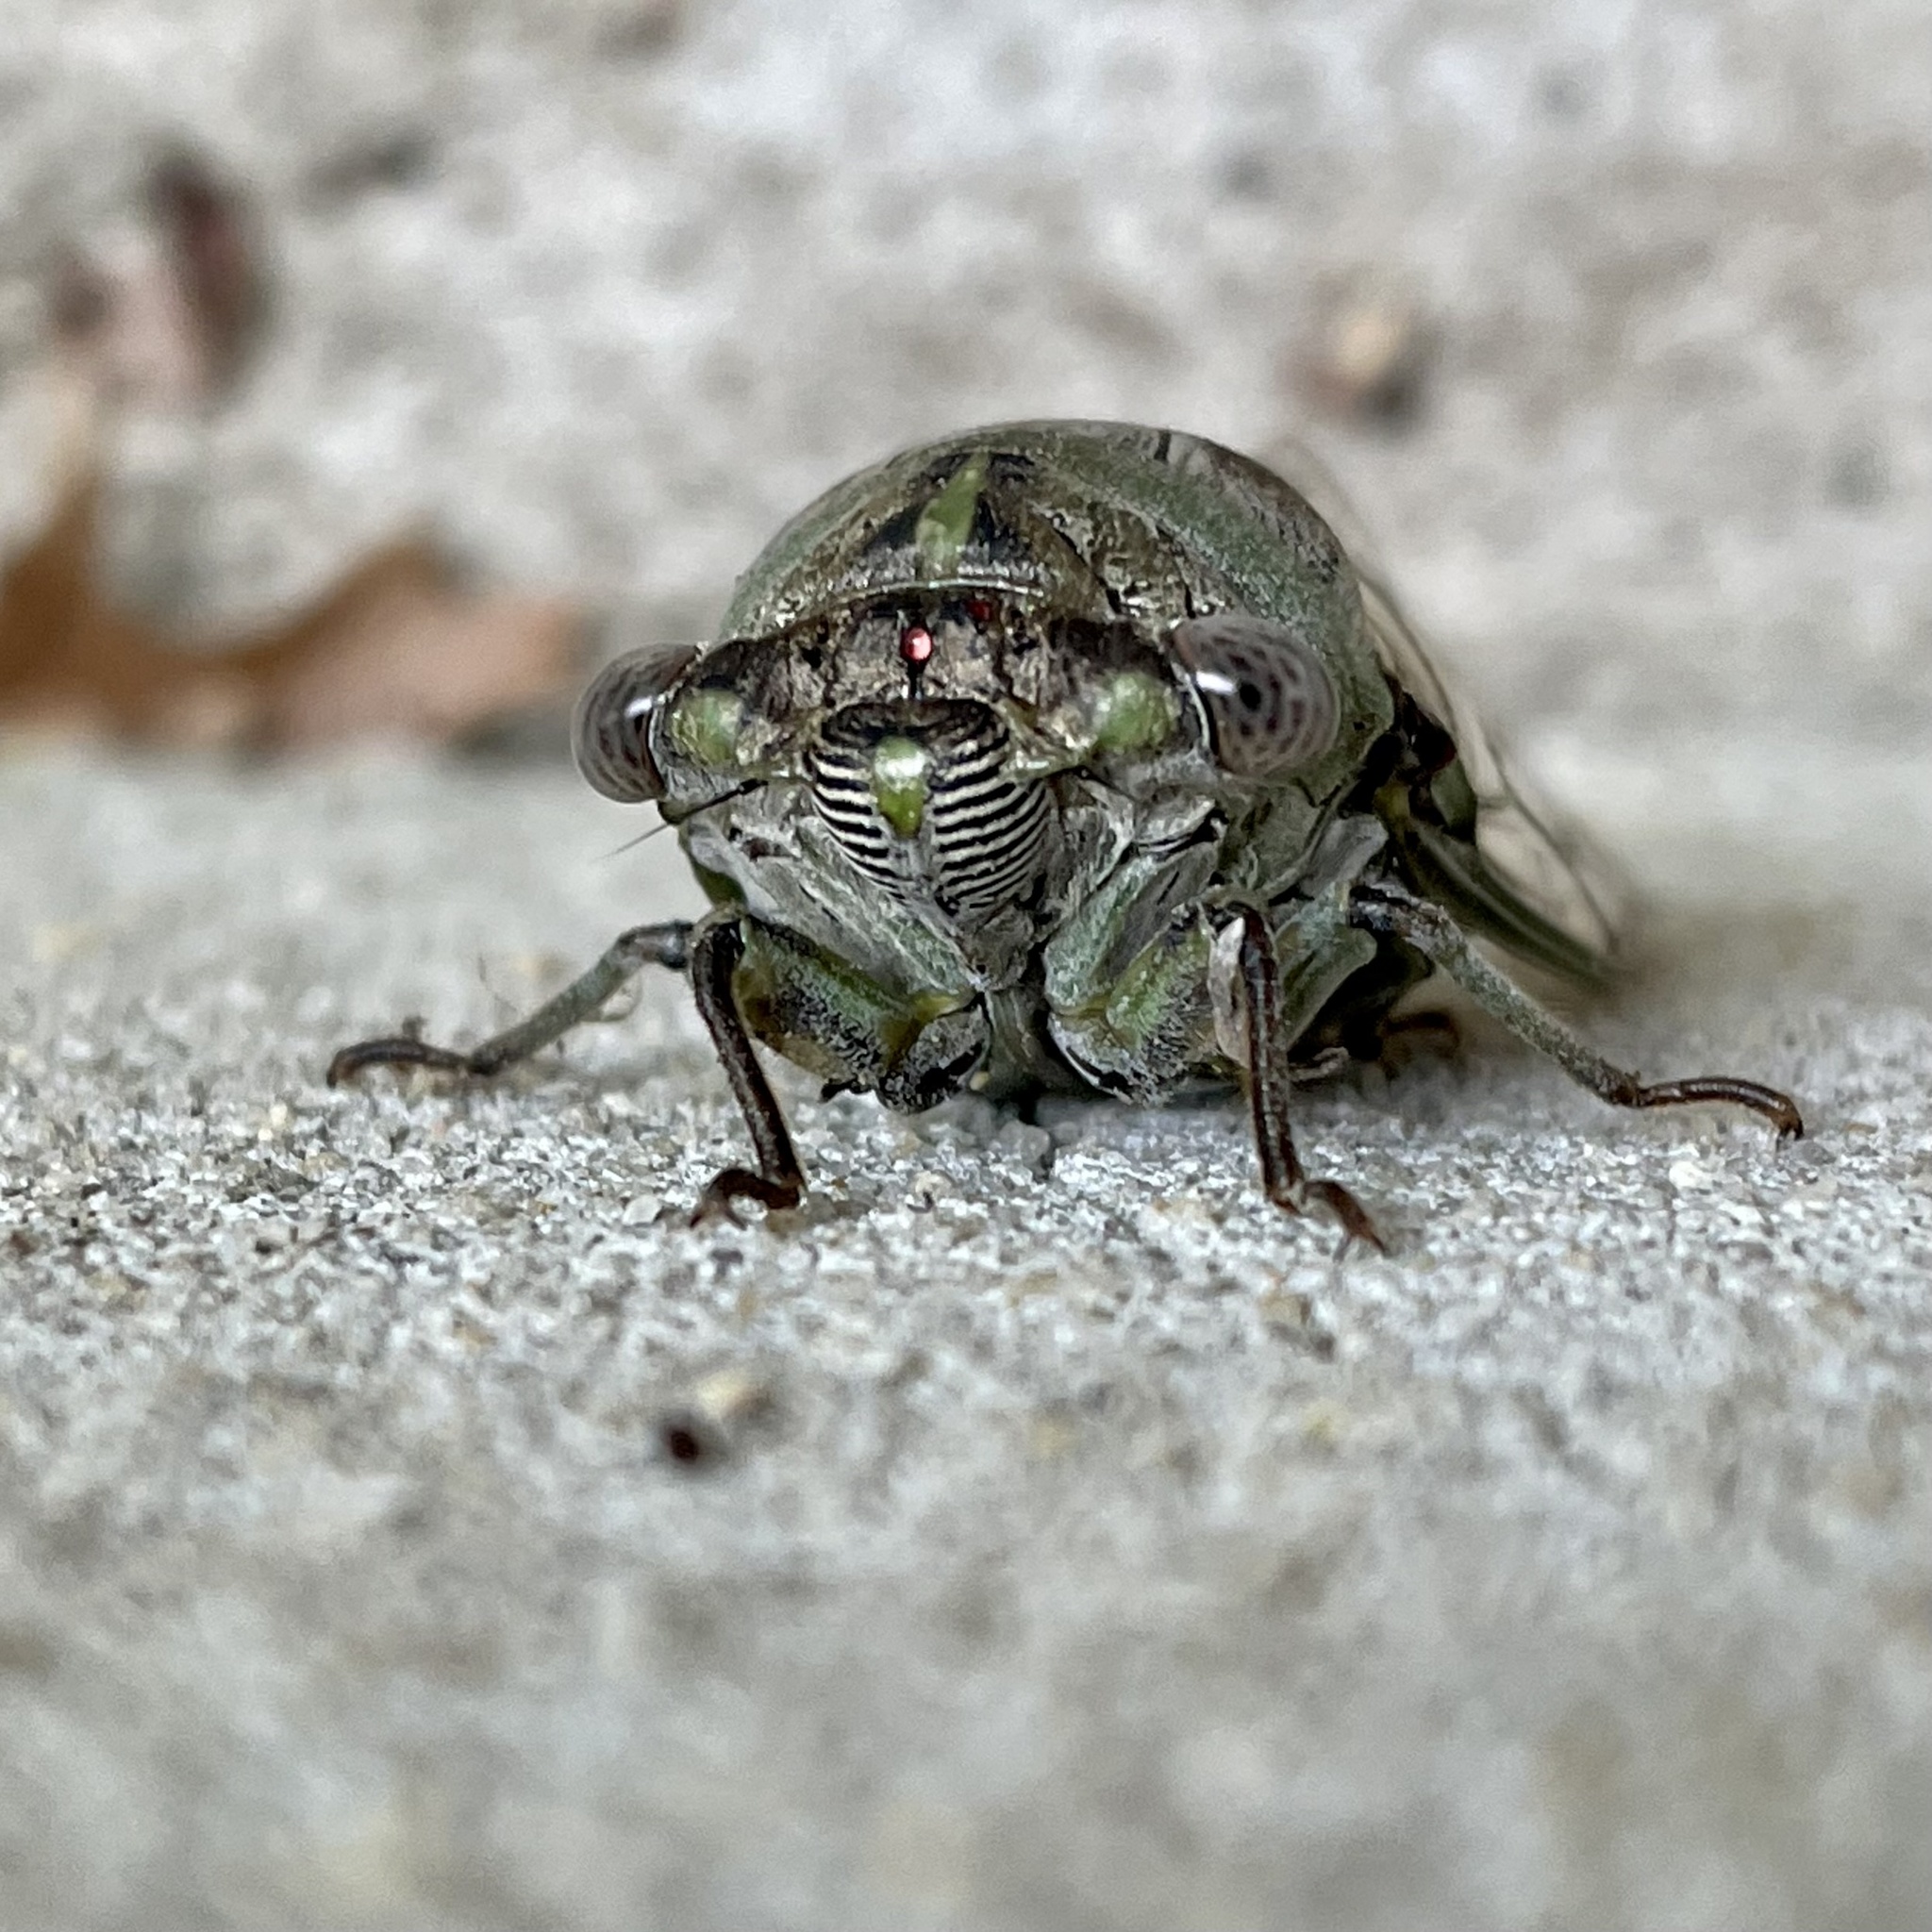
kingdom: Animalia
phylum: Arthropoda
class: Insecta
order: Hemiptera
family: Cicadidae
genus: Diceroprocta
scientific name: Diceroprocta grossa
